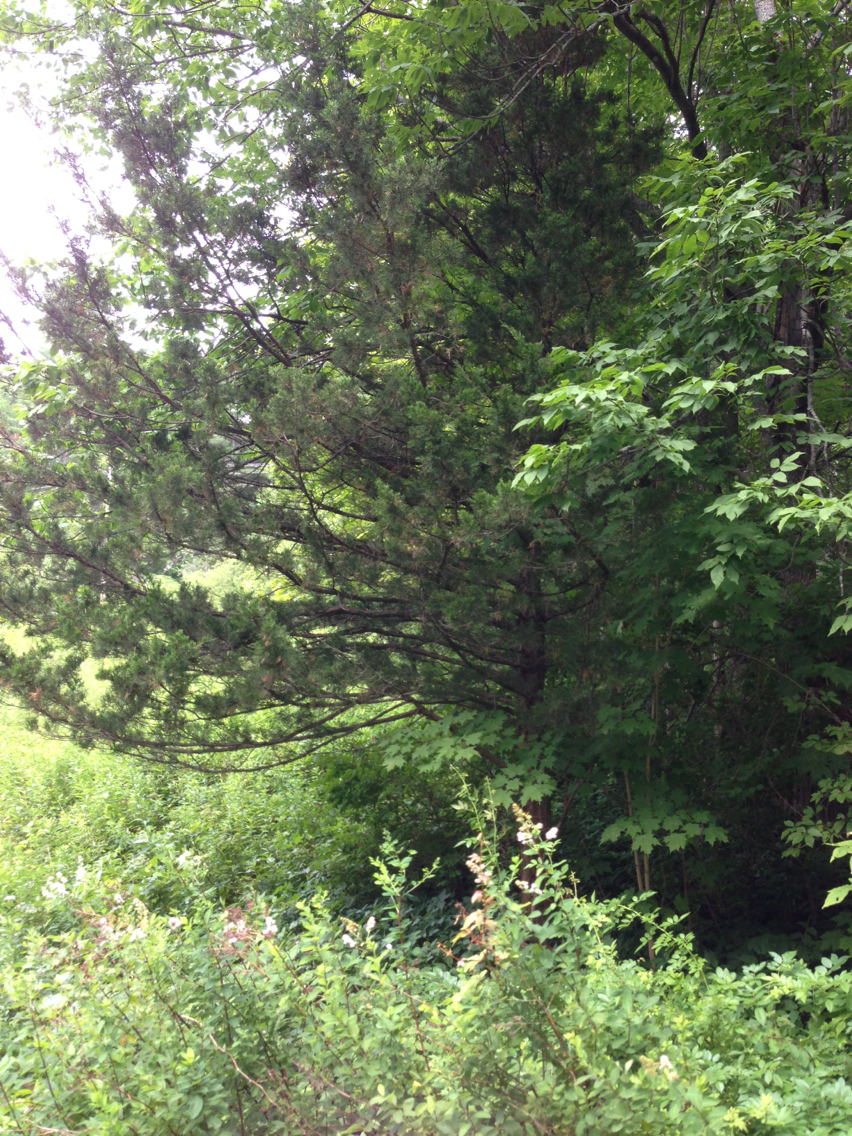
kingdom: Plantae
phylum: Tracheophyta
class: Pinopsida
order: Pinales
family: Cupressaceae
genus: Juniperus
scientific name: Juniperus virginiana
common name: Red juniper
